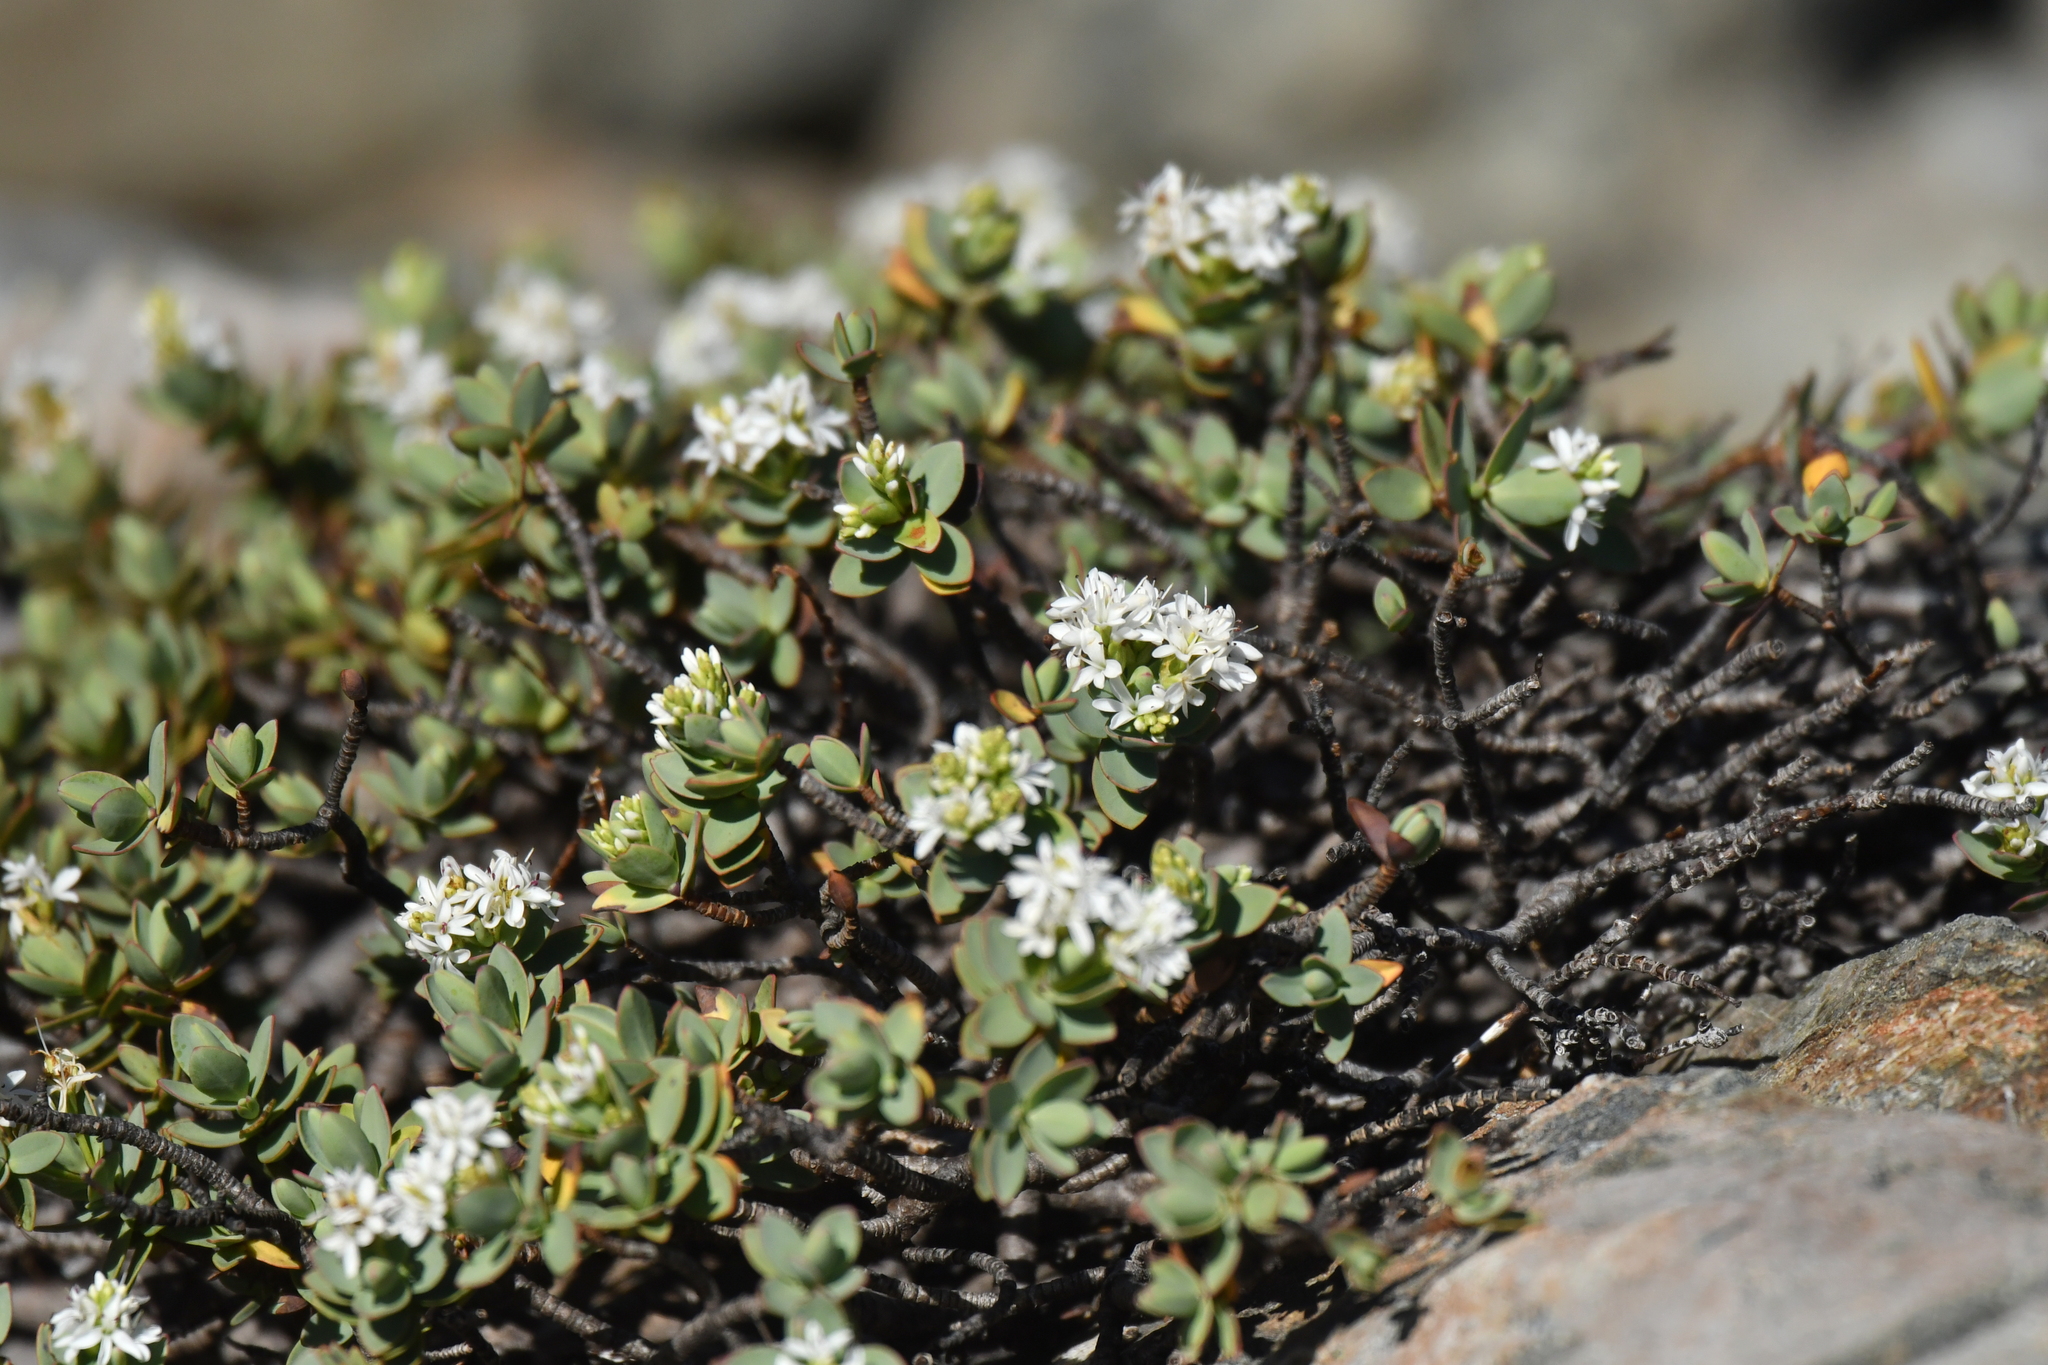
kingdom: Plantae
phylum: Tracheophyta
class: Magnoliopsida
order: Lamiales
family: Plantaginaceae
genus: Veronica
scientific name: Veronica pinguifolia
